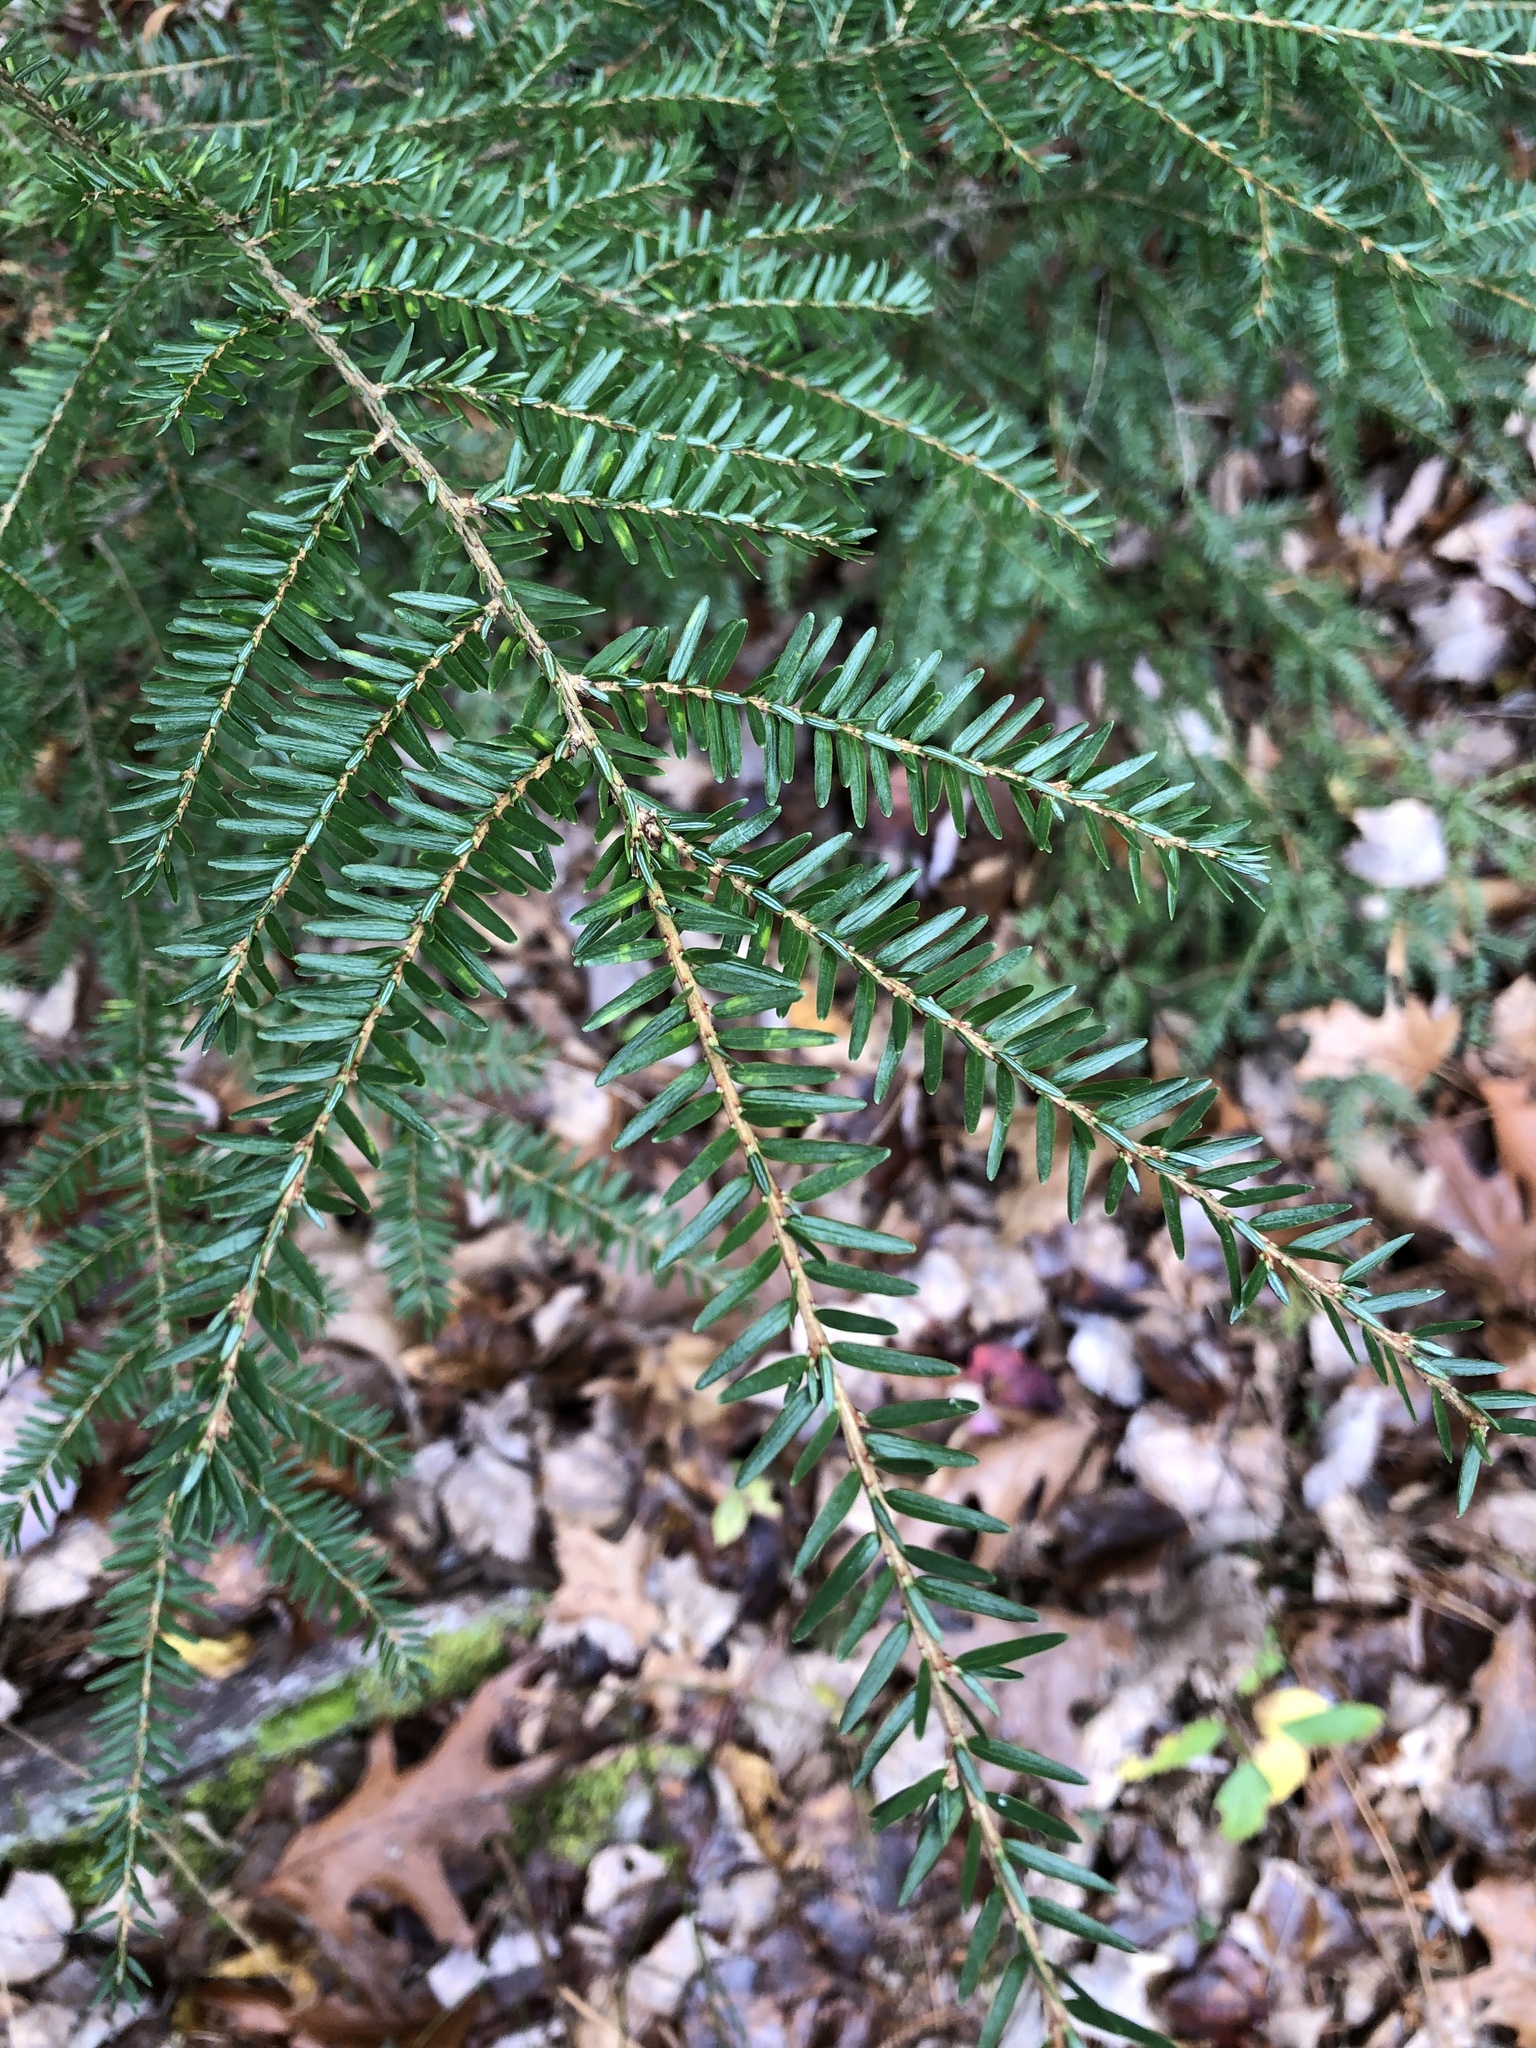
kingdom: Plantae
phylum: Tracheophyta
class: Pinopsida
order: Pinales
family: Pinaceae
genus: Tsuga
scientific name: Tsuga canadensis
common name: Eastern hemlock
